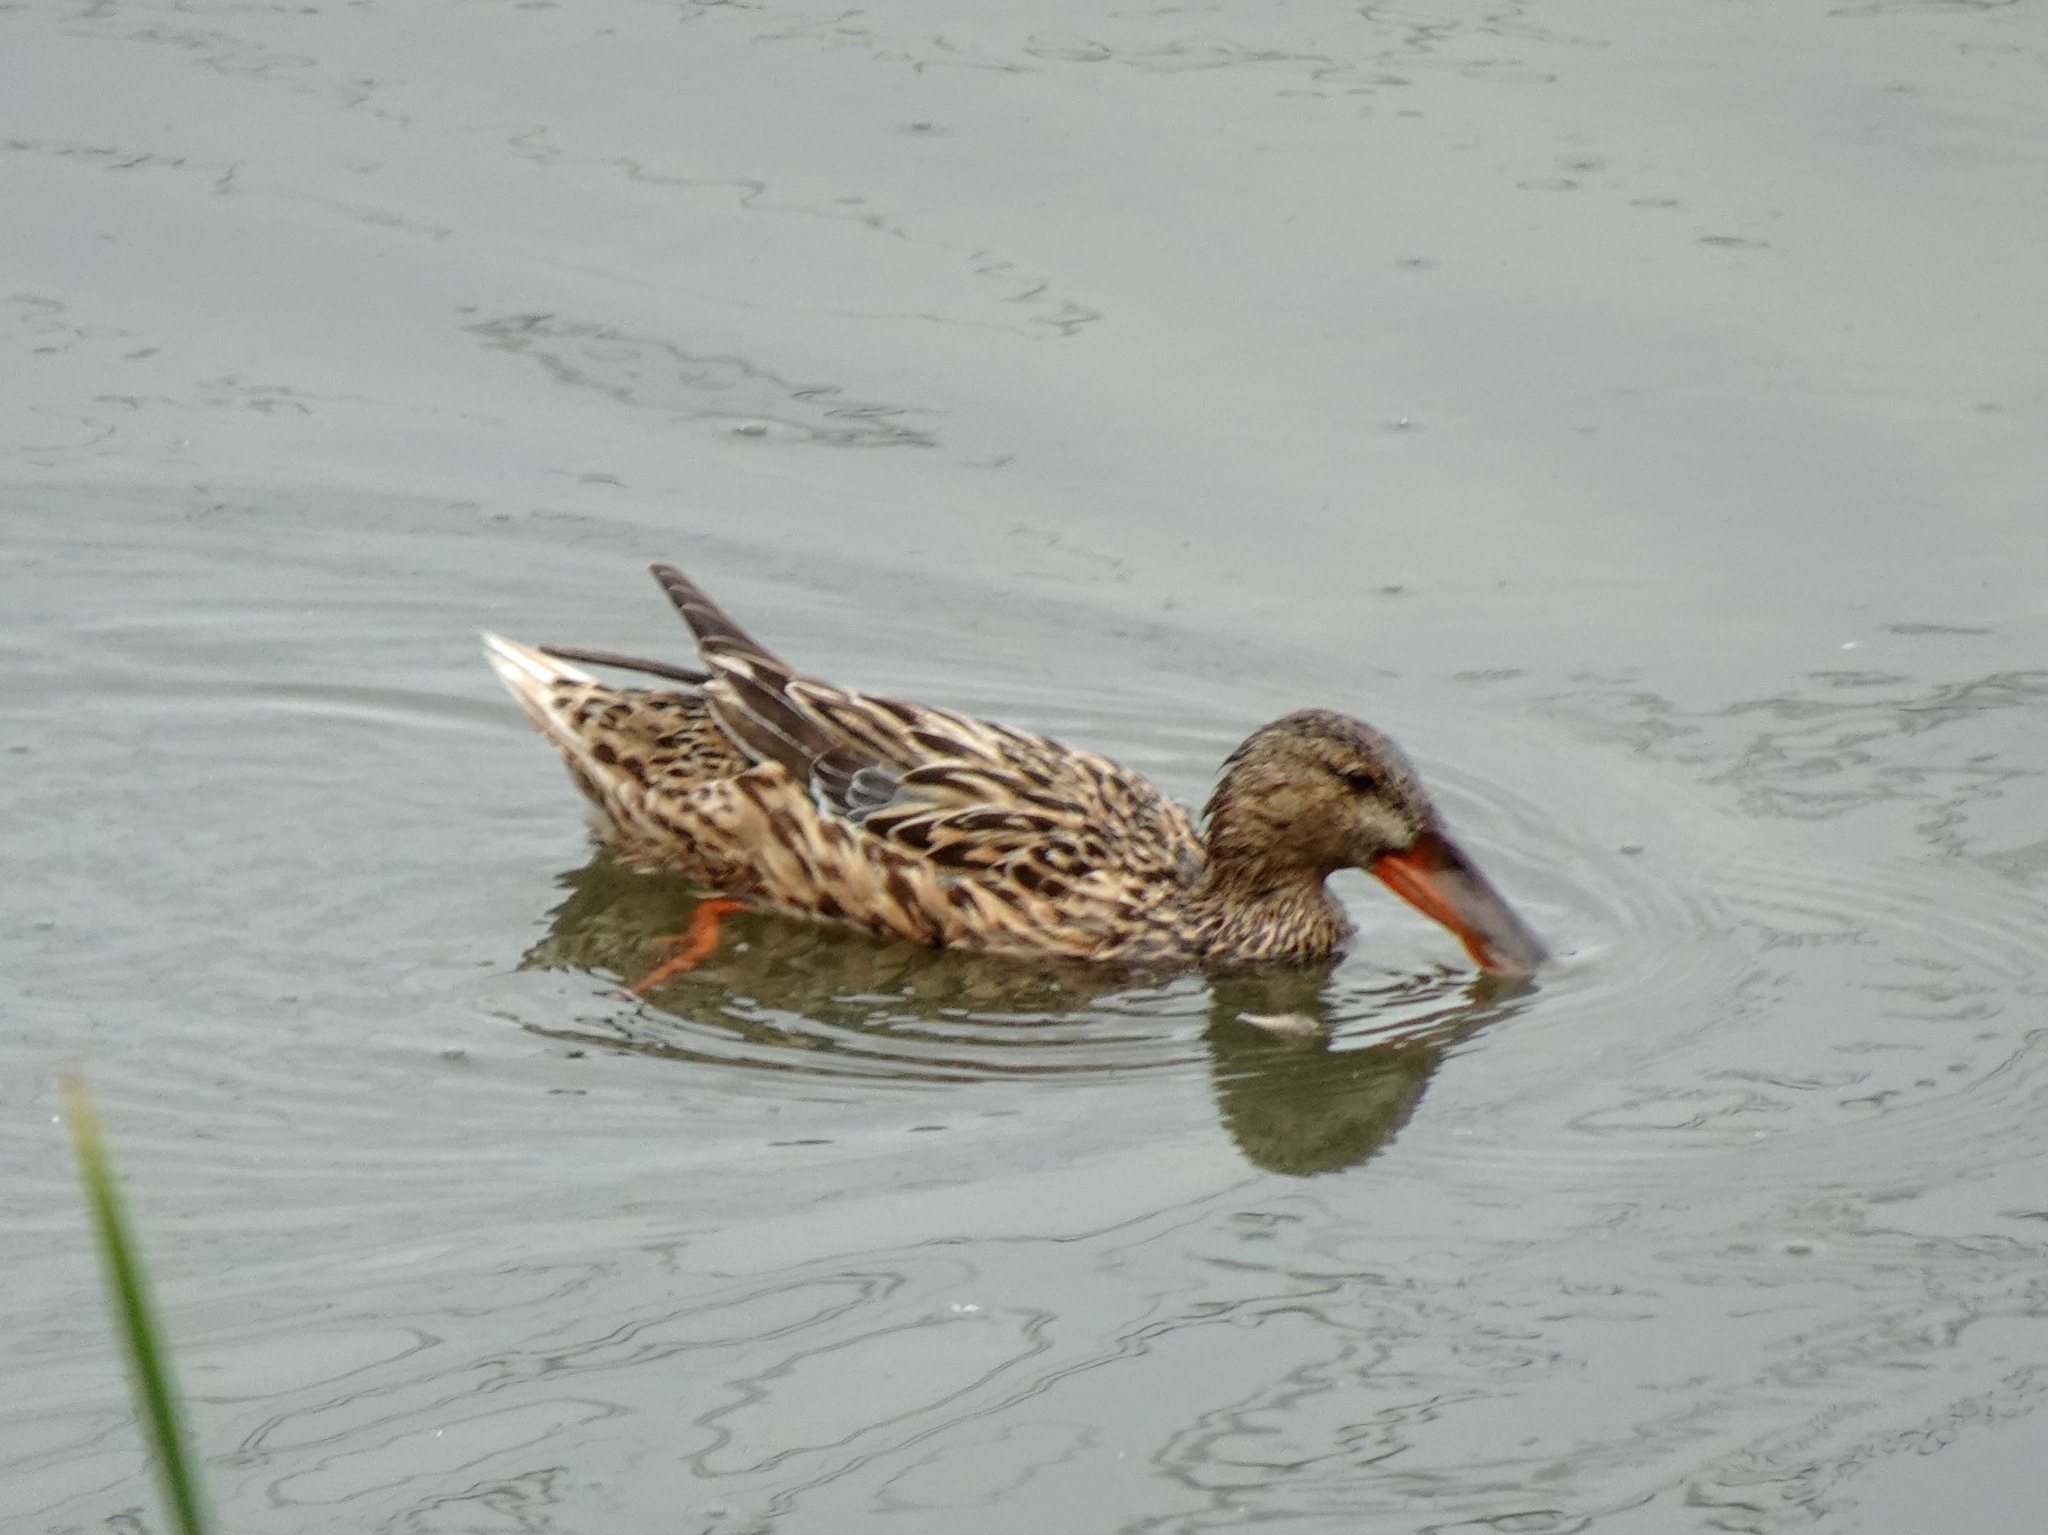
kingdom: Animalia
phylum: Chordata
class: Aves
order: Anseriformes
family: Anatidae
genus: Spatula
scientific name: Spatula clypeata
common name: Northern shoveler
